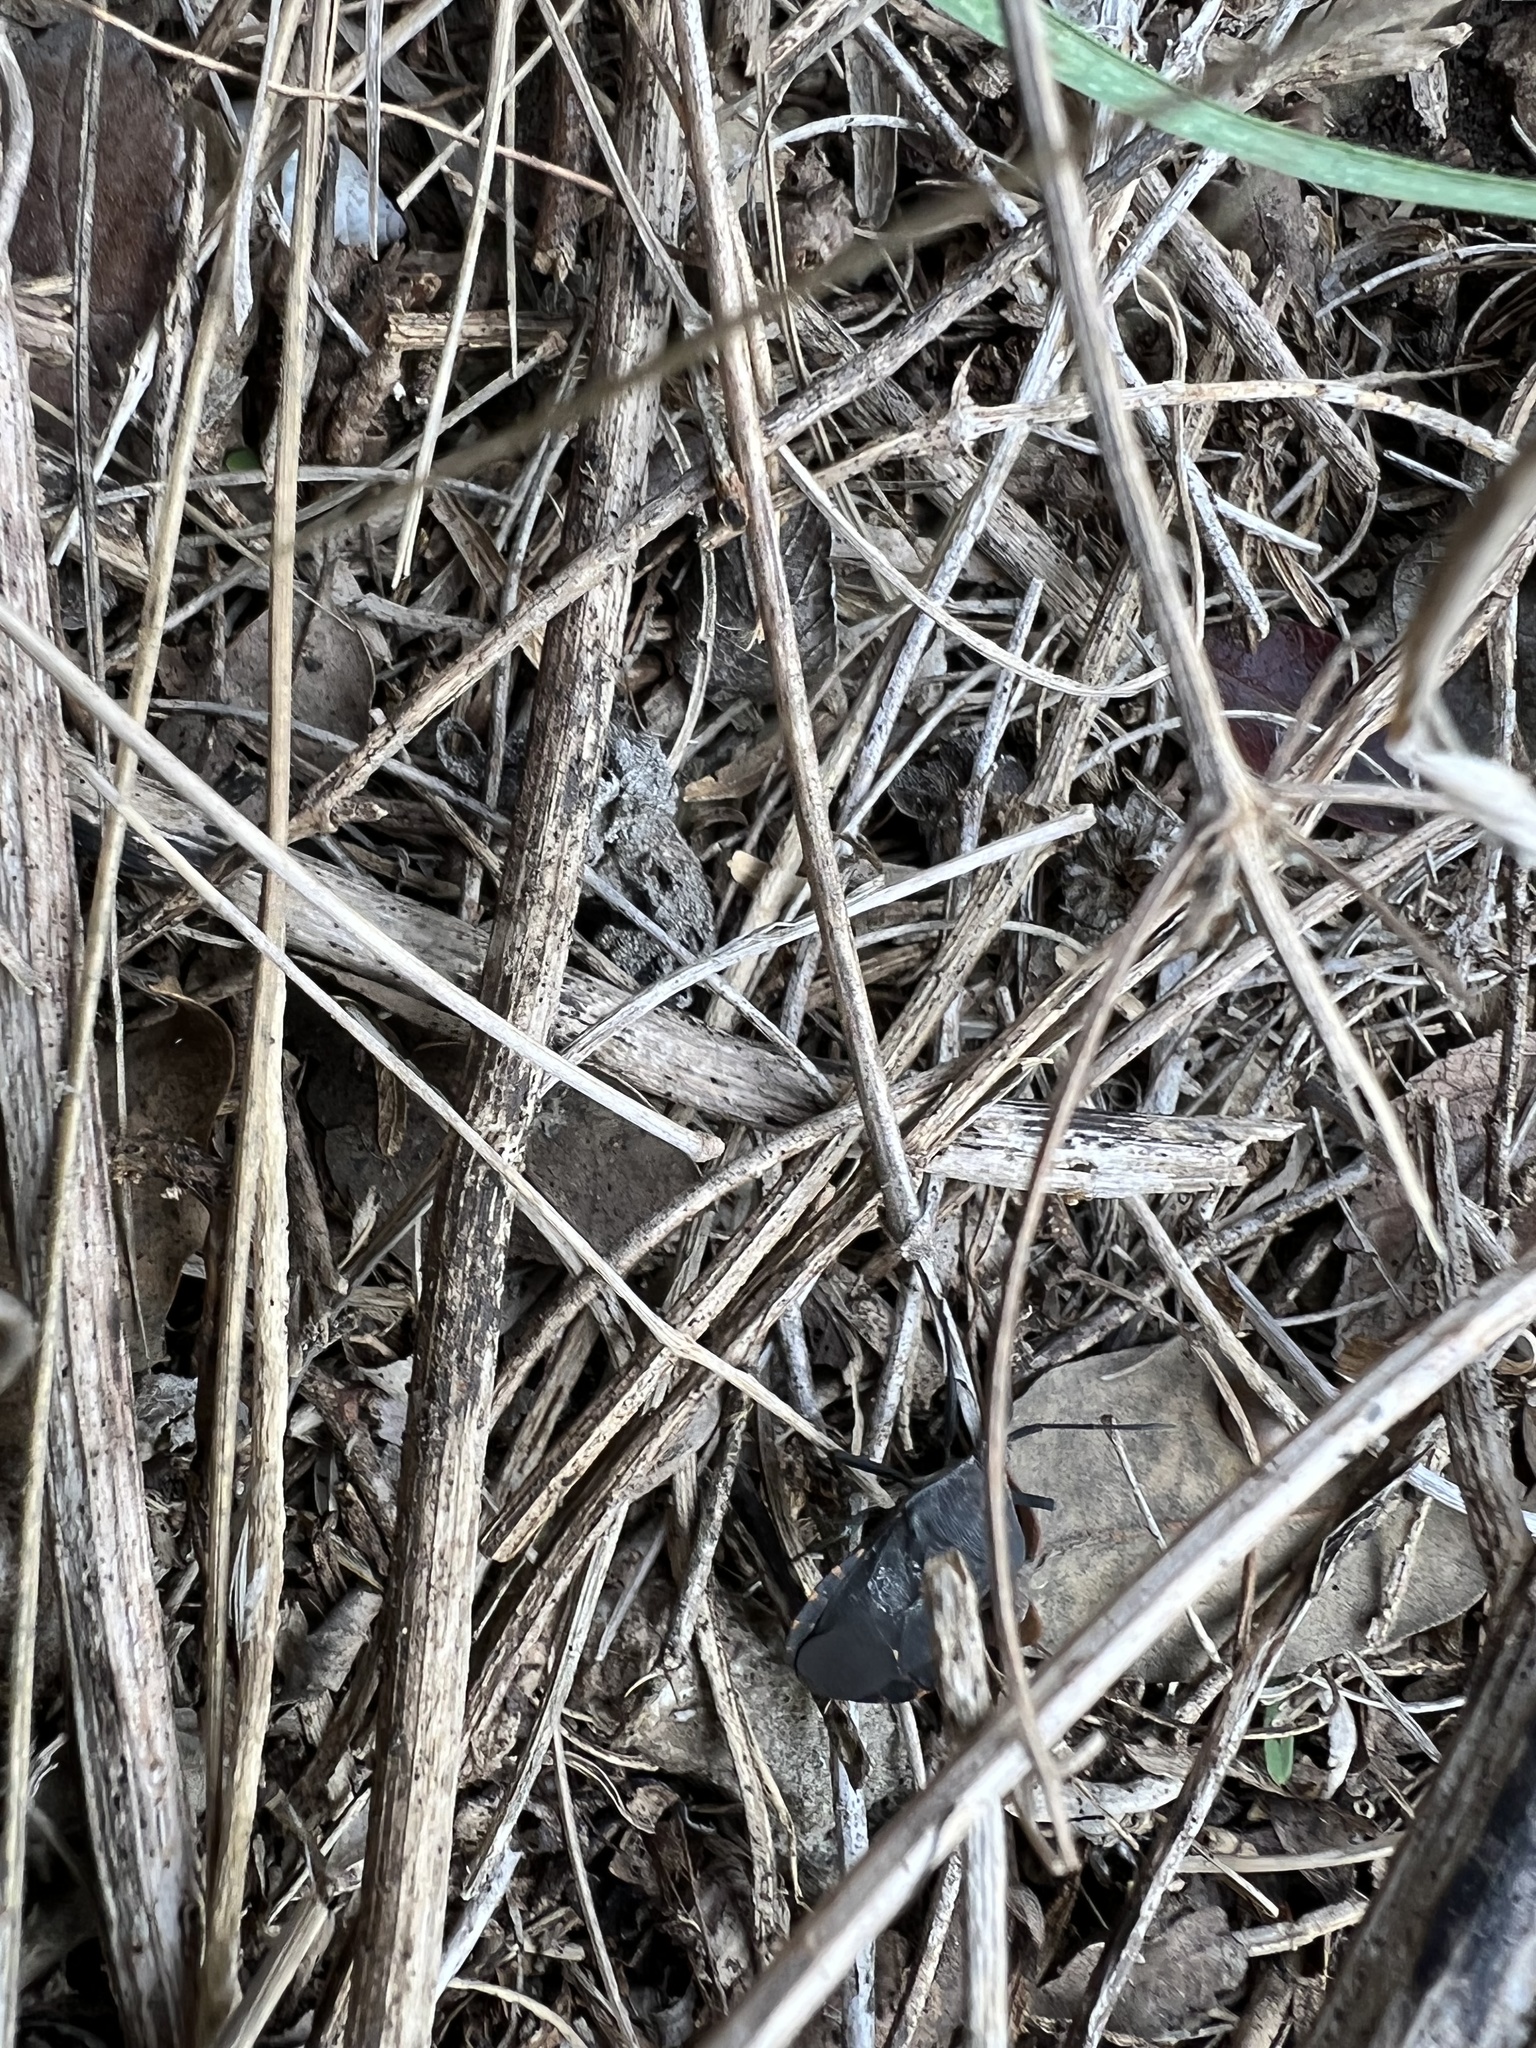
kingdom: Animalia
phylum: Arthropoda
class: Insecta
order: Hemiptera
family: Coreidae
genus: Cimolus
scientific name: Cimolus obscurus
